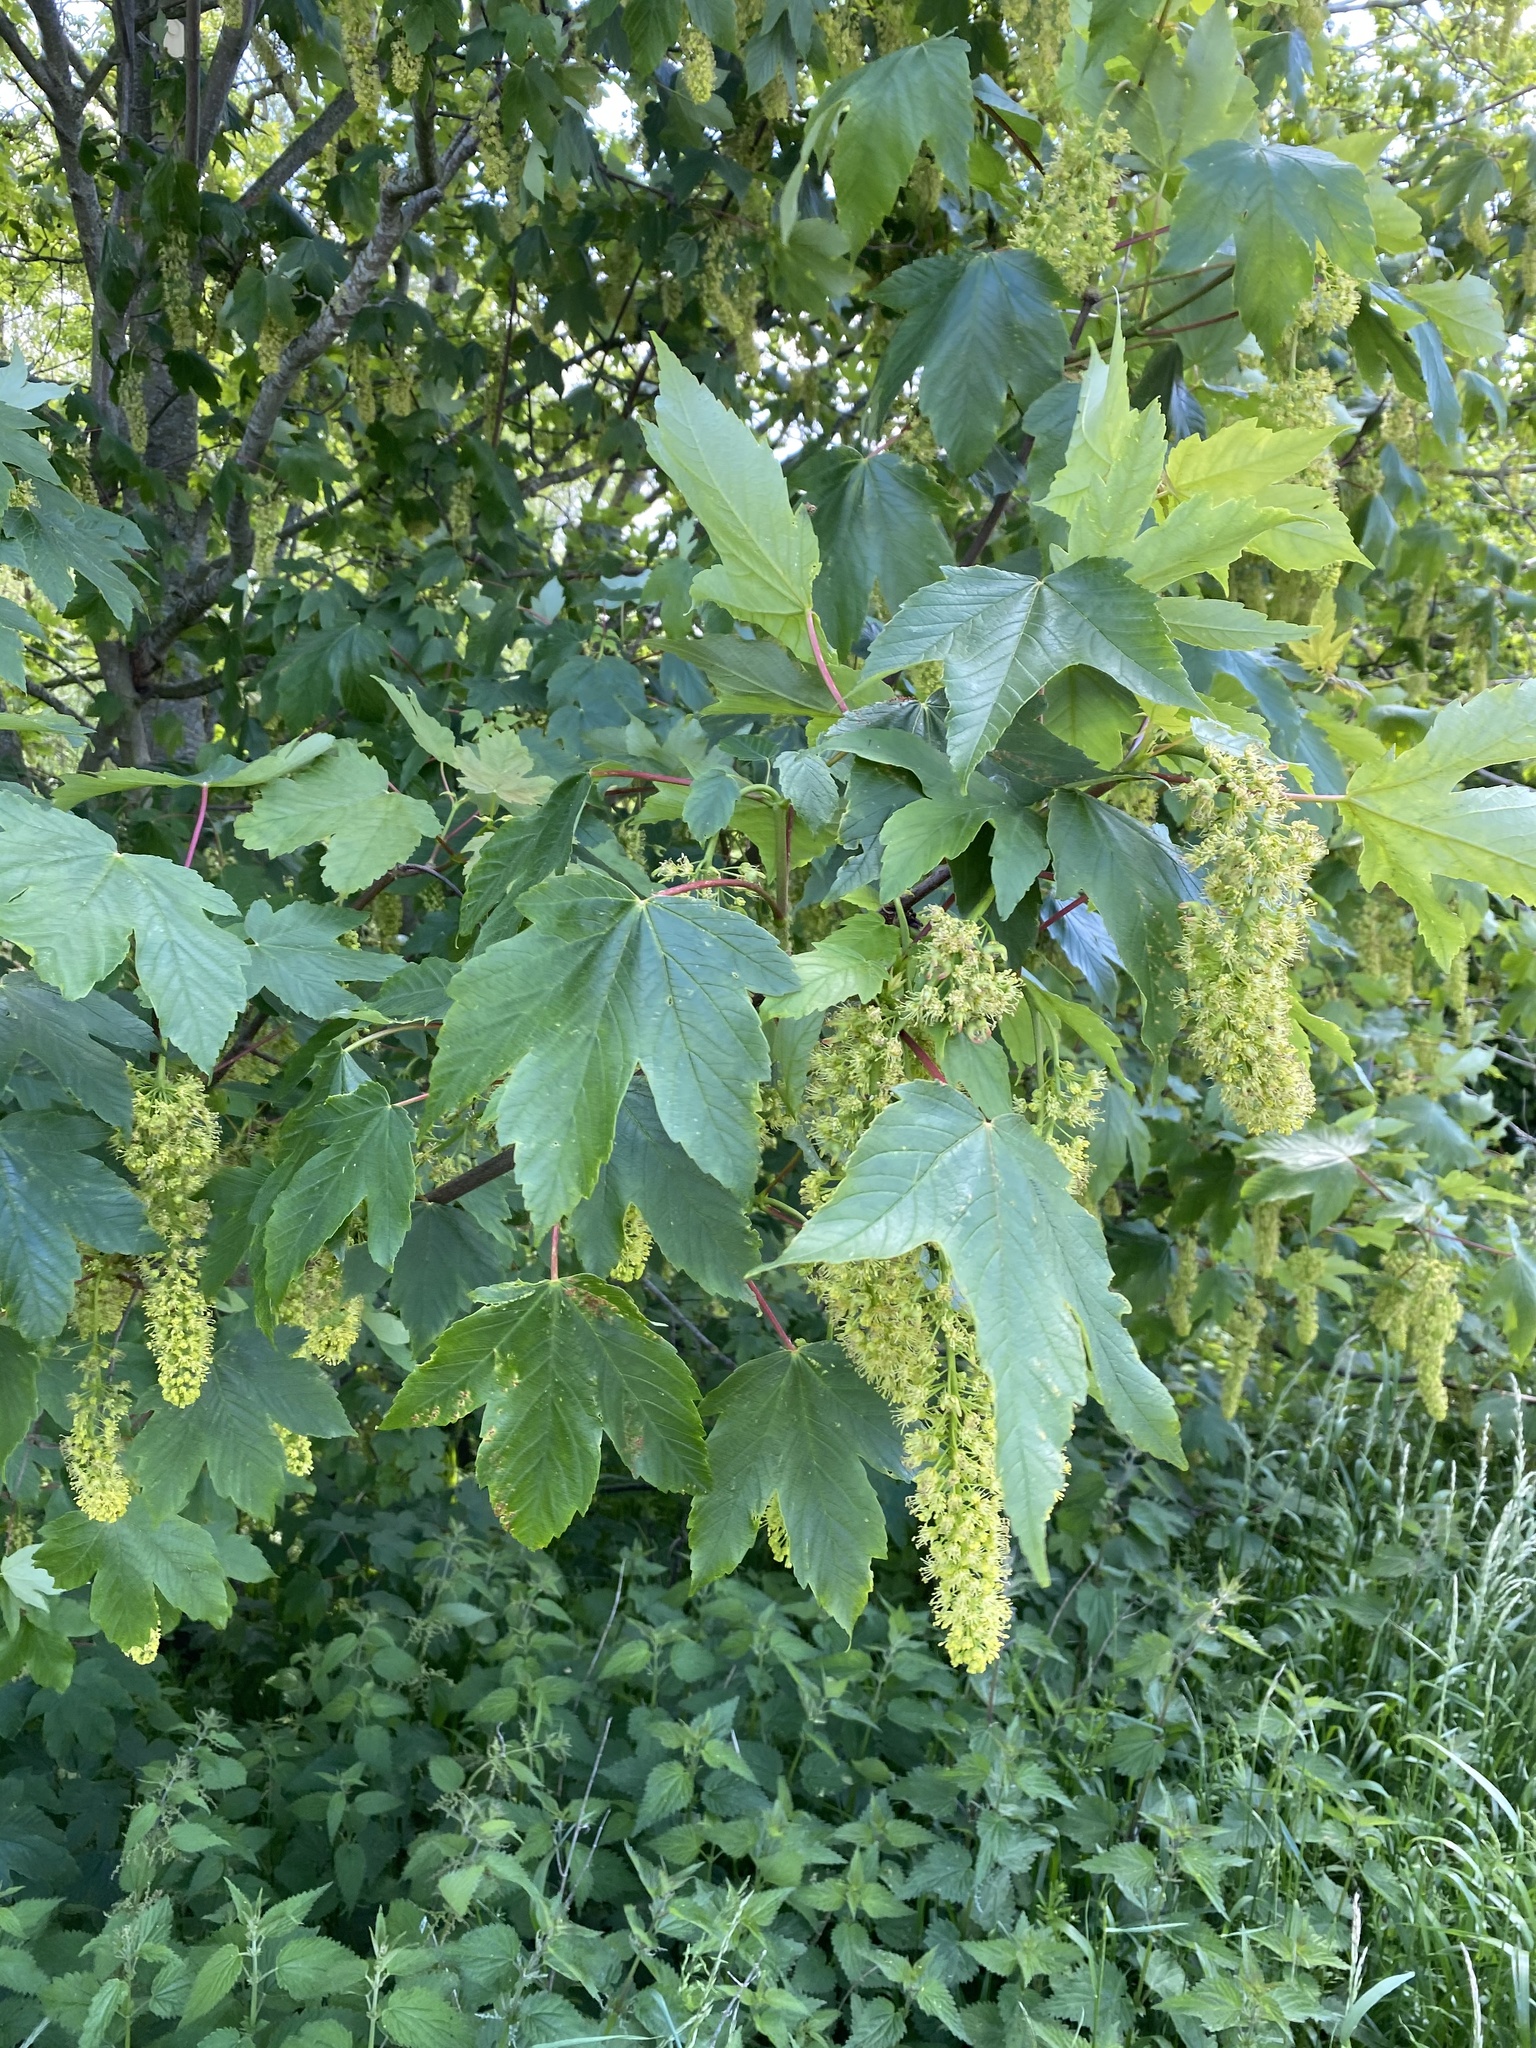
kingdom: Plantae
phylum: Tracheophyta
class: Magnoliopsida
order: Sapindales
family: Sapindaceae
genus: Acer
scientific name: Acer pseudoplatanus
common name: Sycamore
